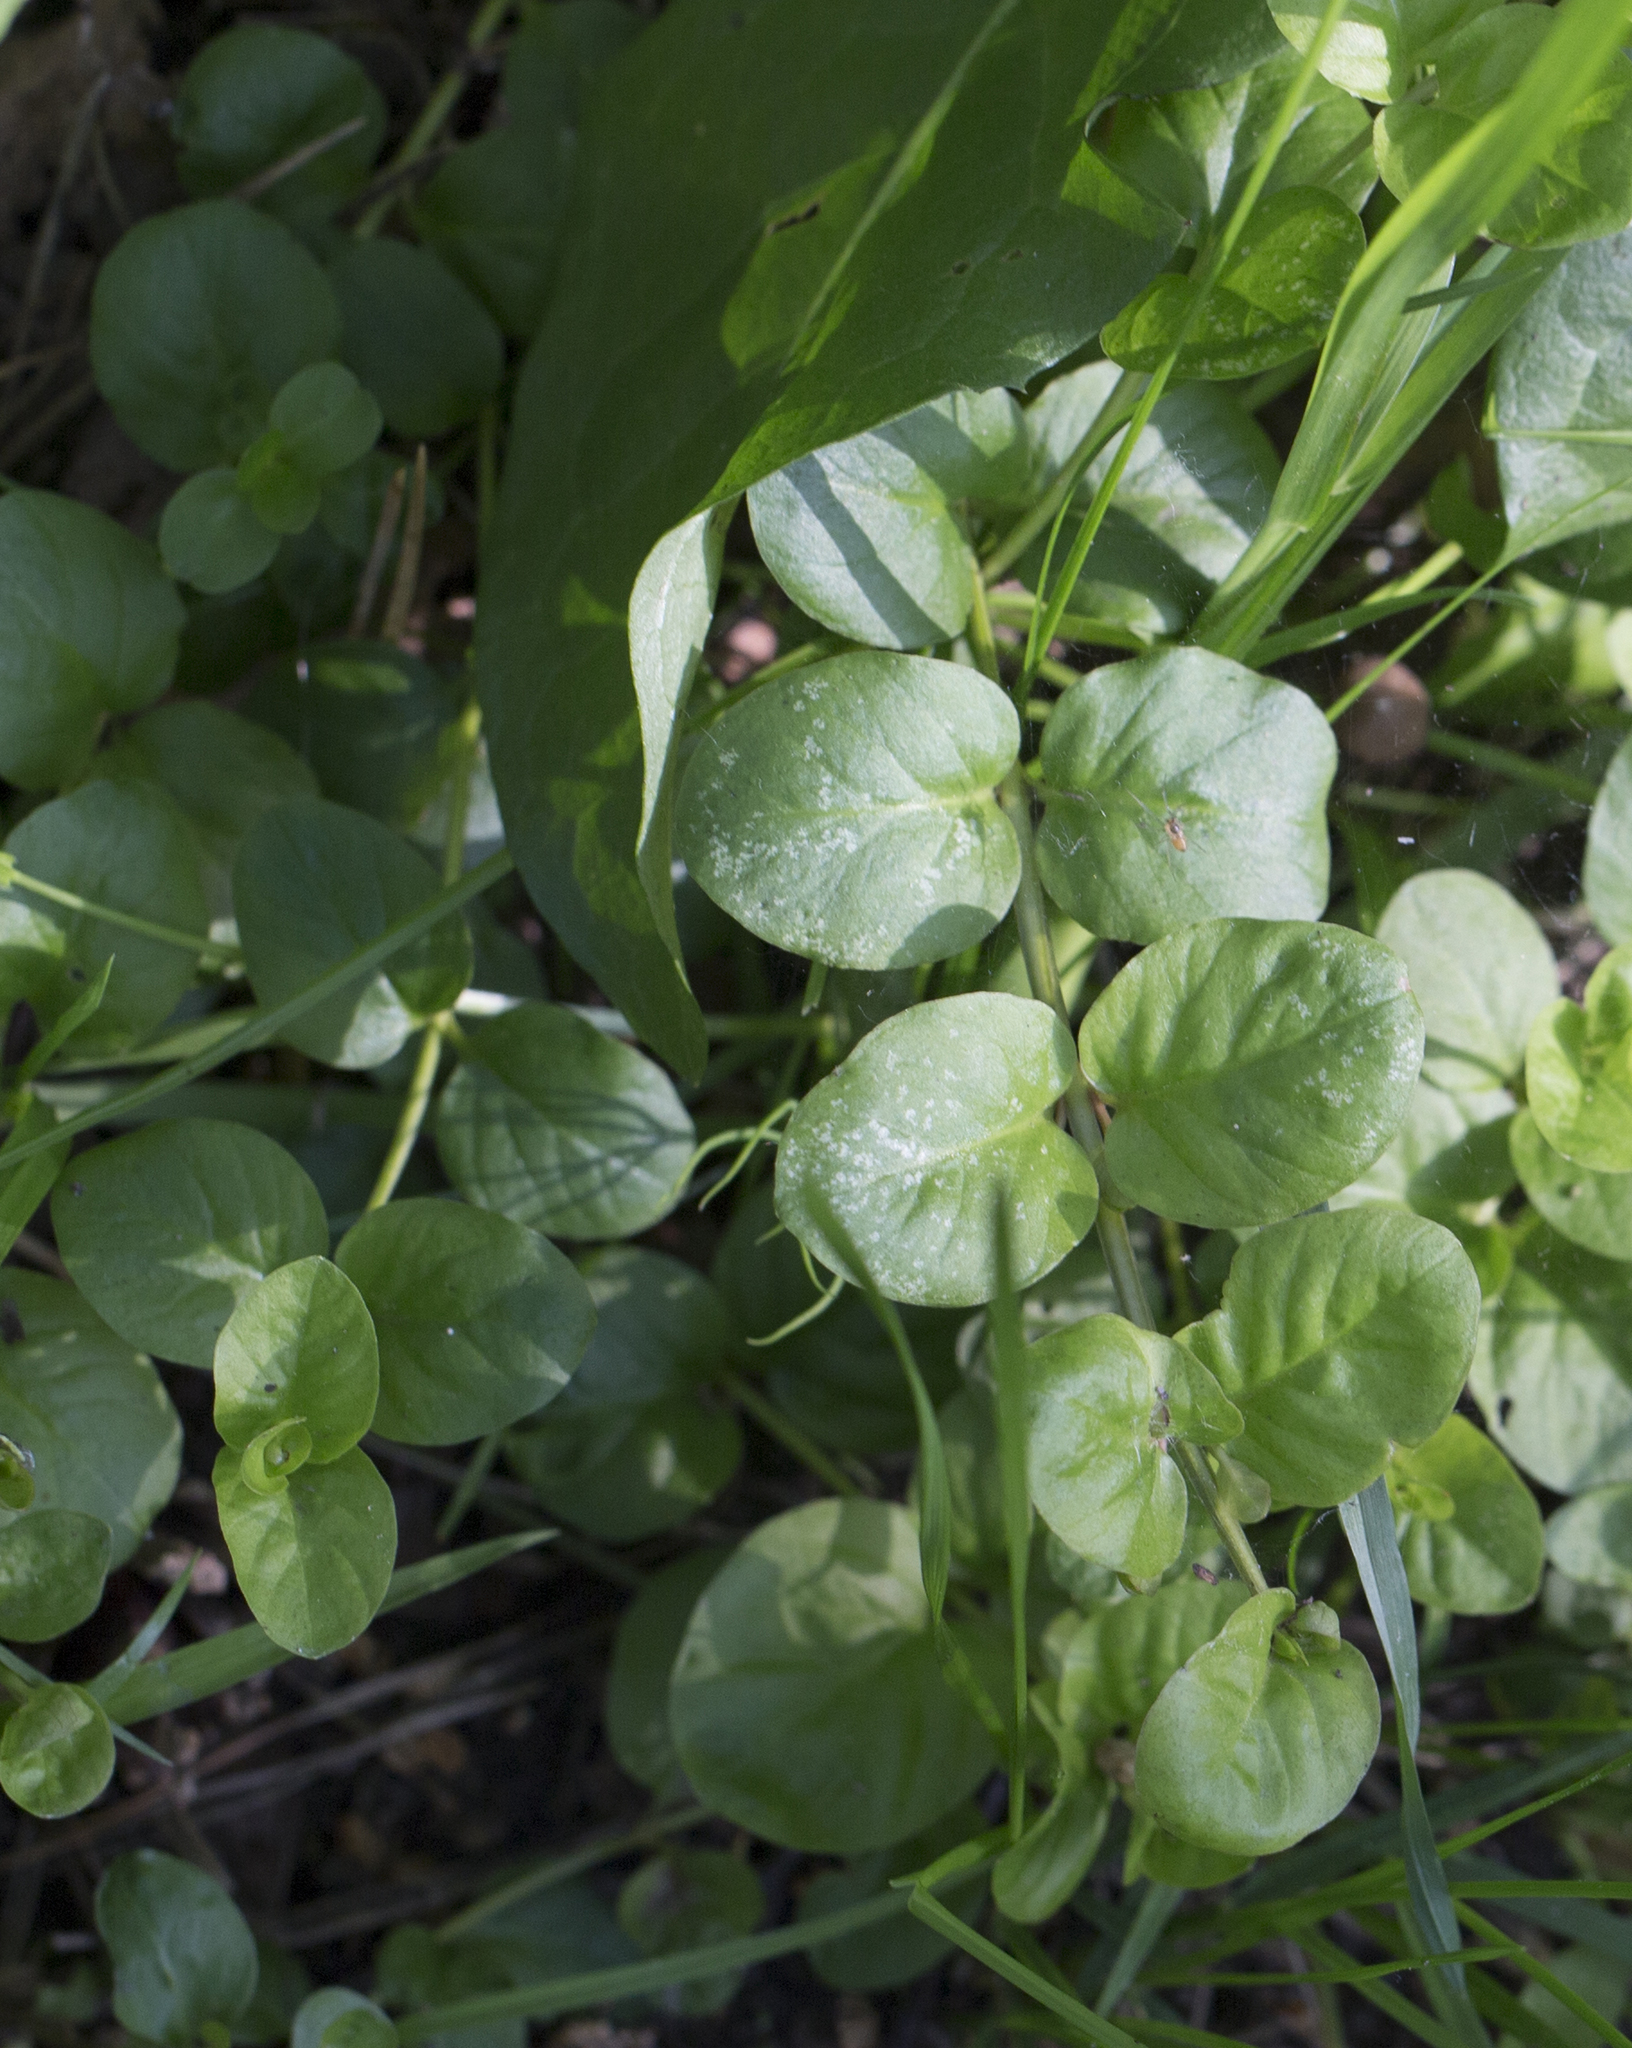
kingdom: Plantae
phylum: Tracheophyta
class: Magnoliopsida
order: Ericales
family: Primulaceae
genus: Lysimachia
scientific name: Lysimachia nummularia
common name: Moneywort
